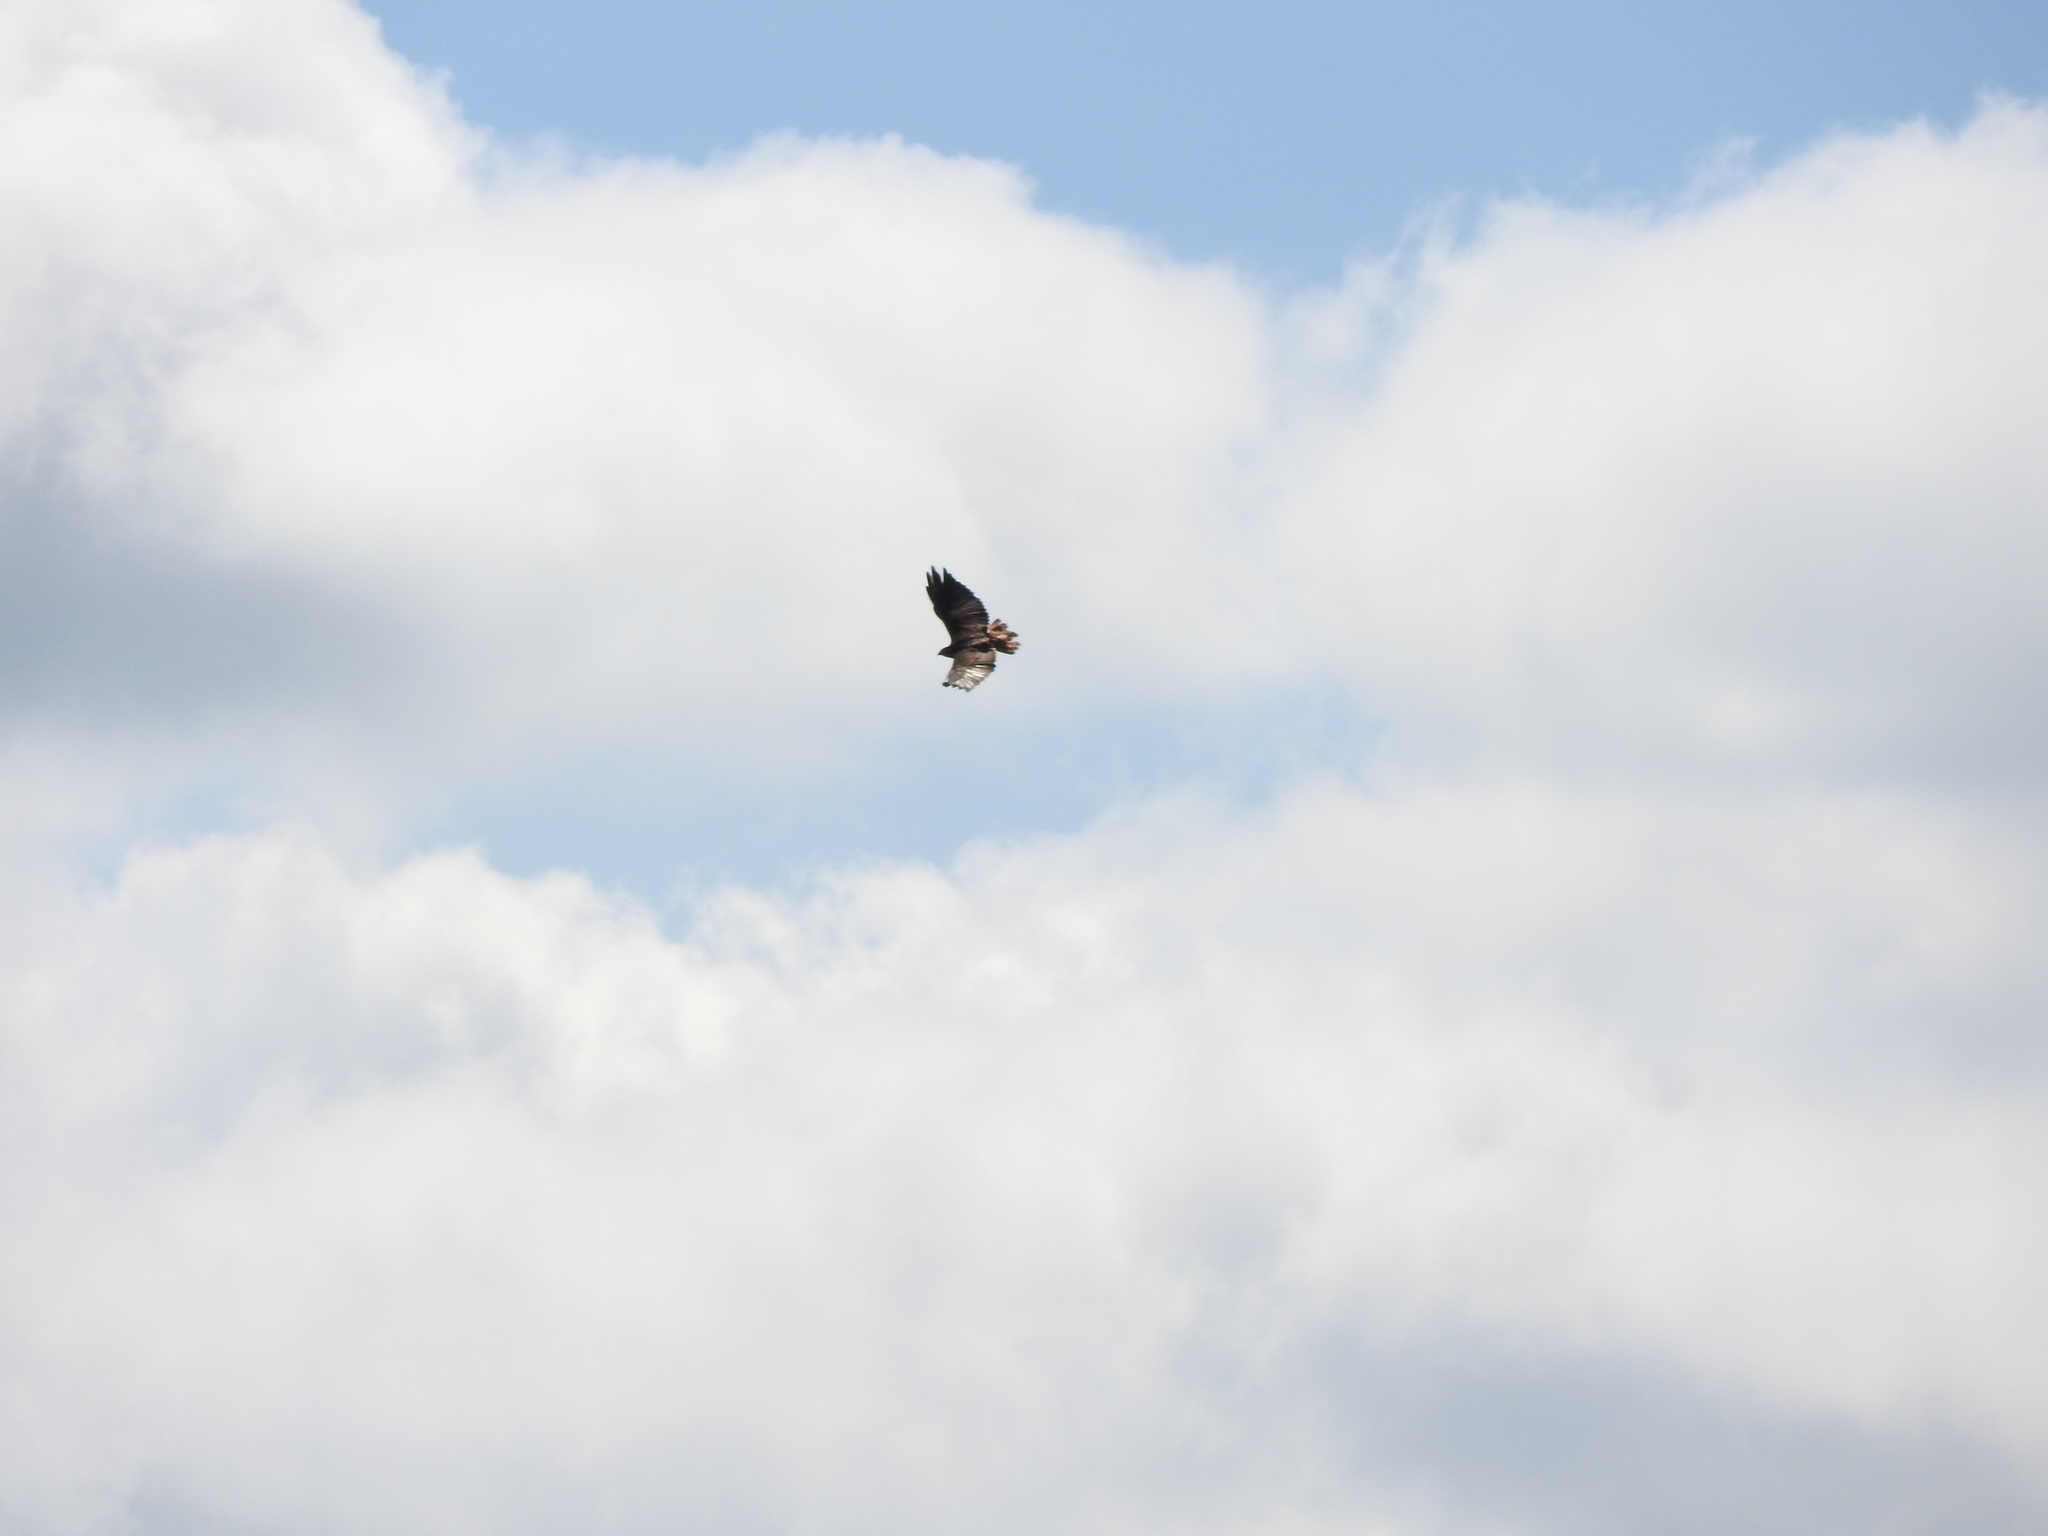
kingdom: Animalia
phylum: Chordata
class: Aves
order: Accipitriformes
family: Accipitridae
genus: Buteo
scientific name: Buteo jamaicensis
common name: Red-tailed hawk
